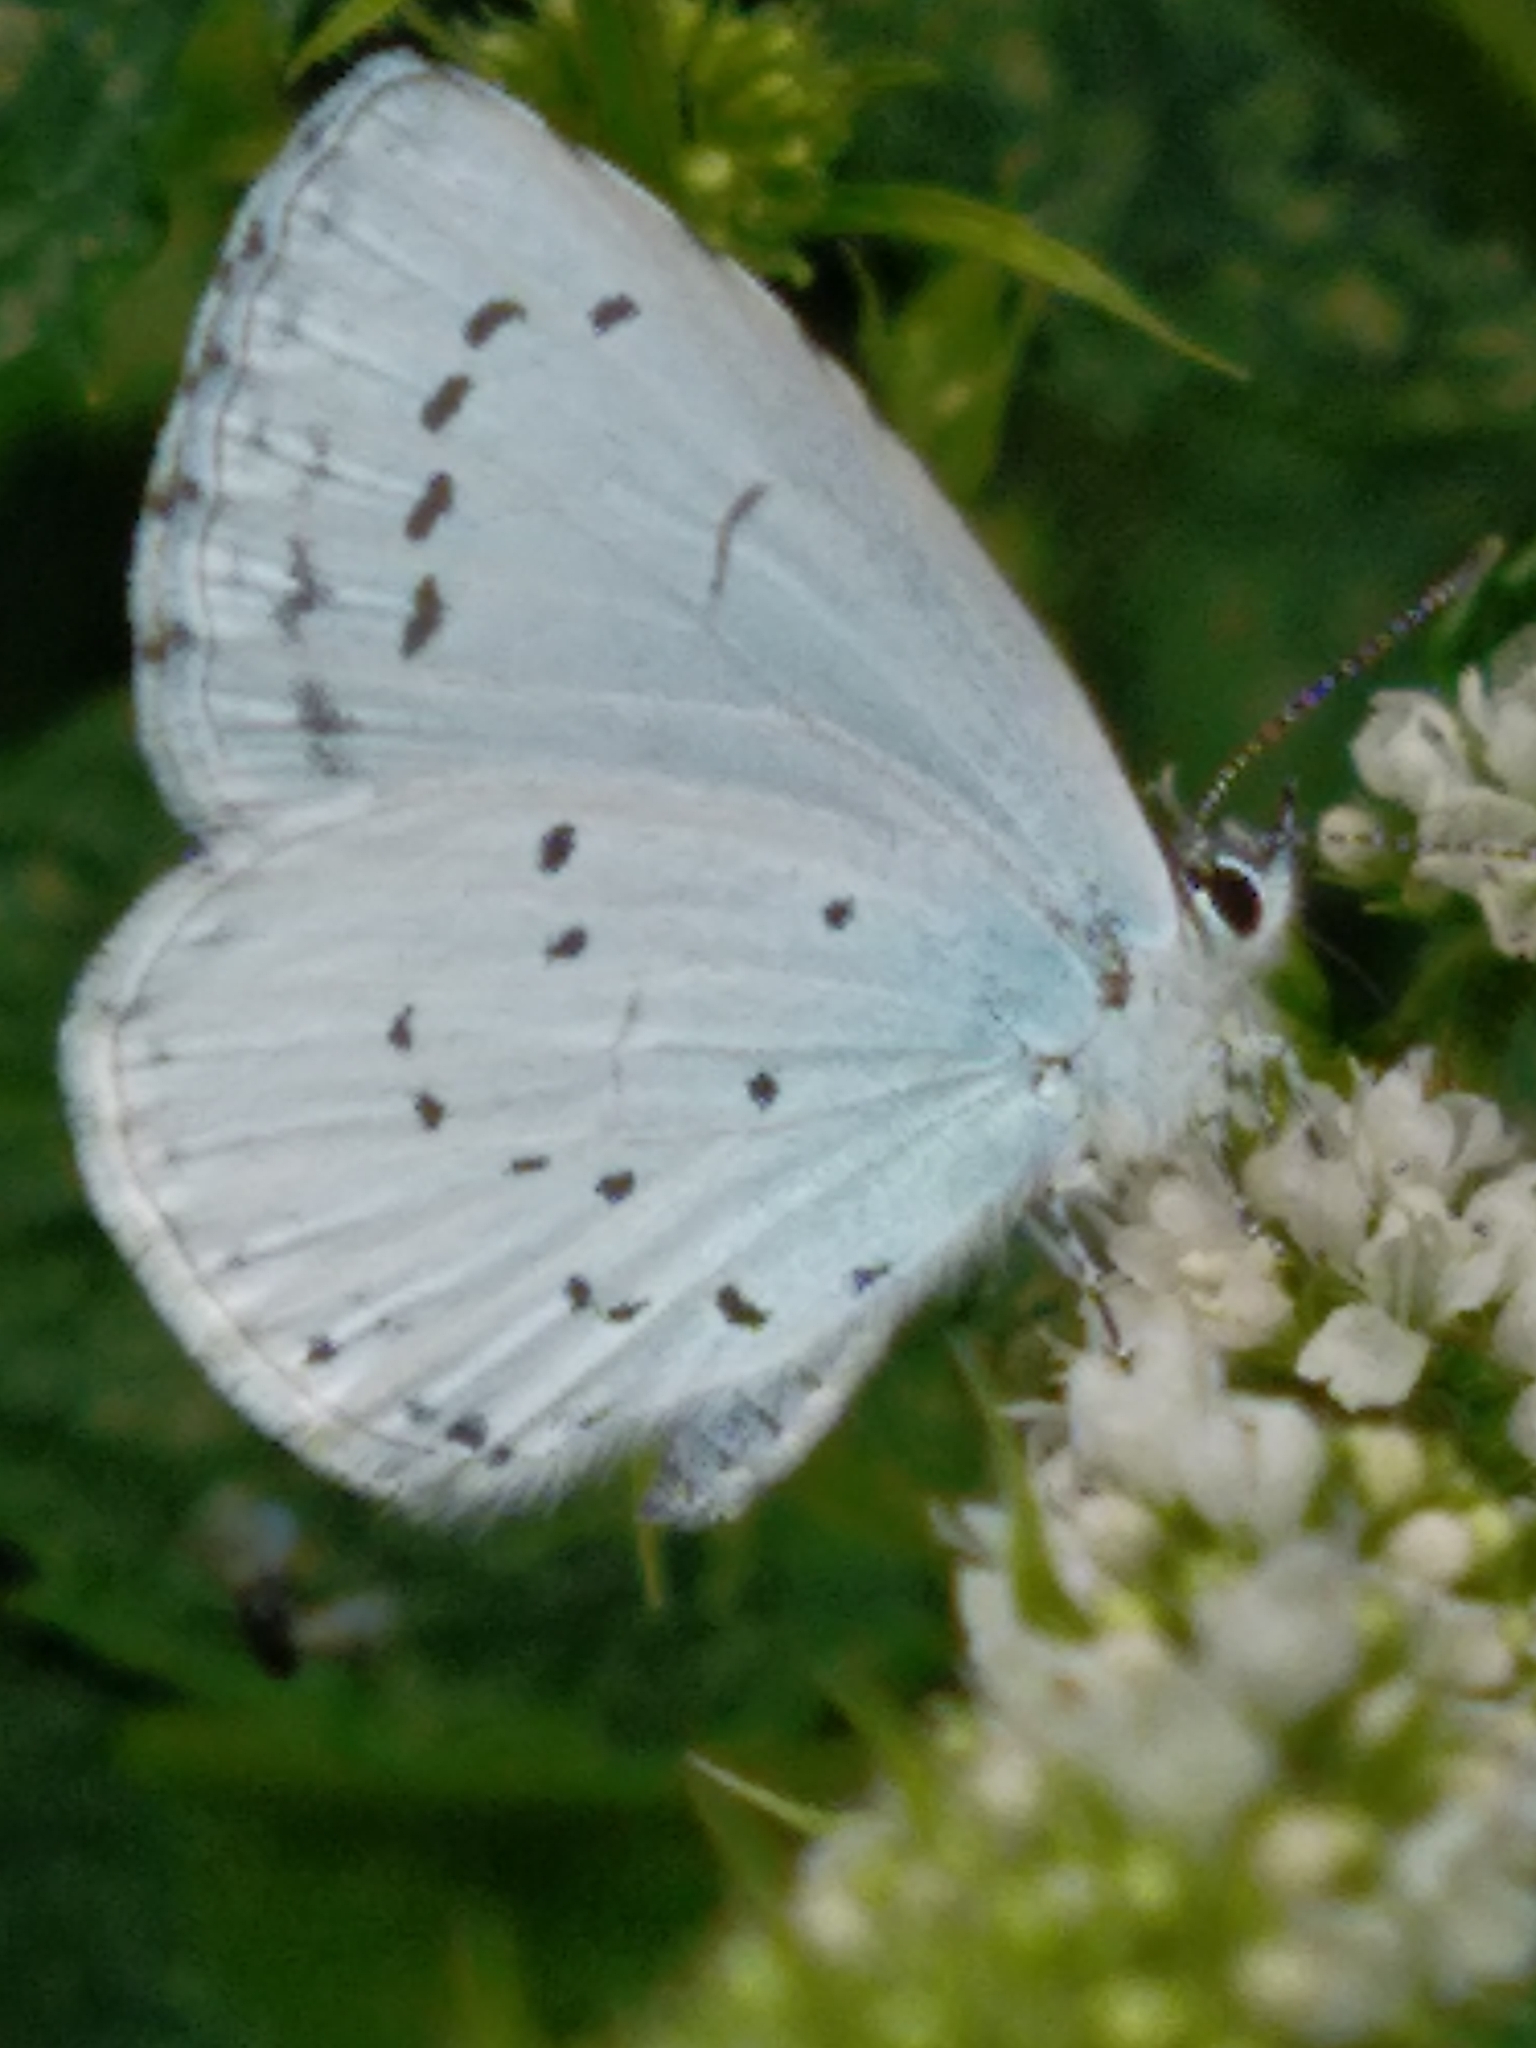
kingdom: Animalia
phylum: Arthropoda
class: Insecta
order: Lepidoptera
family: Lycaenidae
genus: Celastrina
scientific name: Celastrina argiolus
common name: Holly blue
